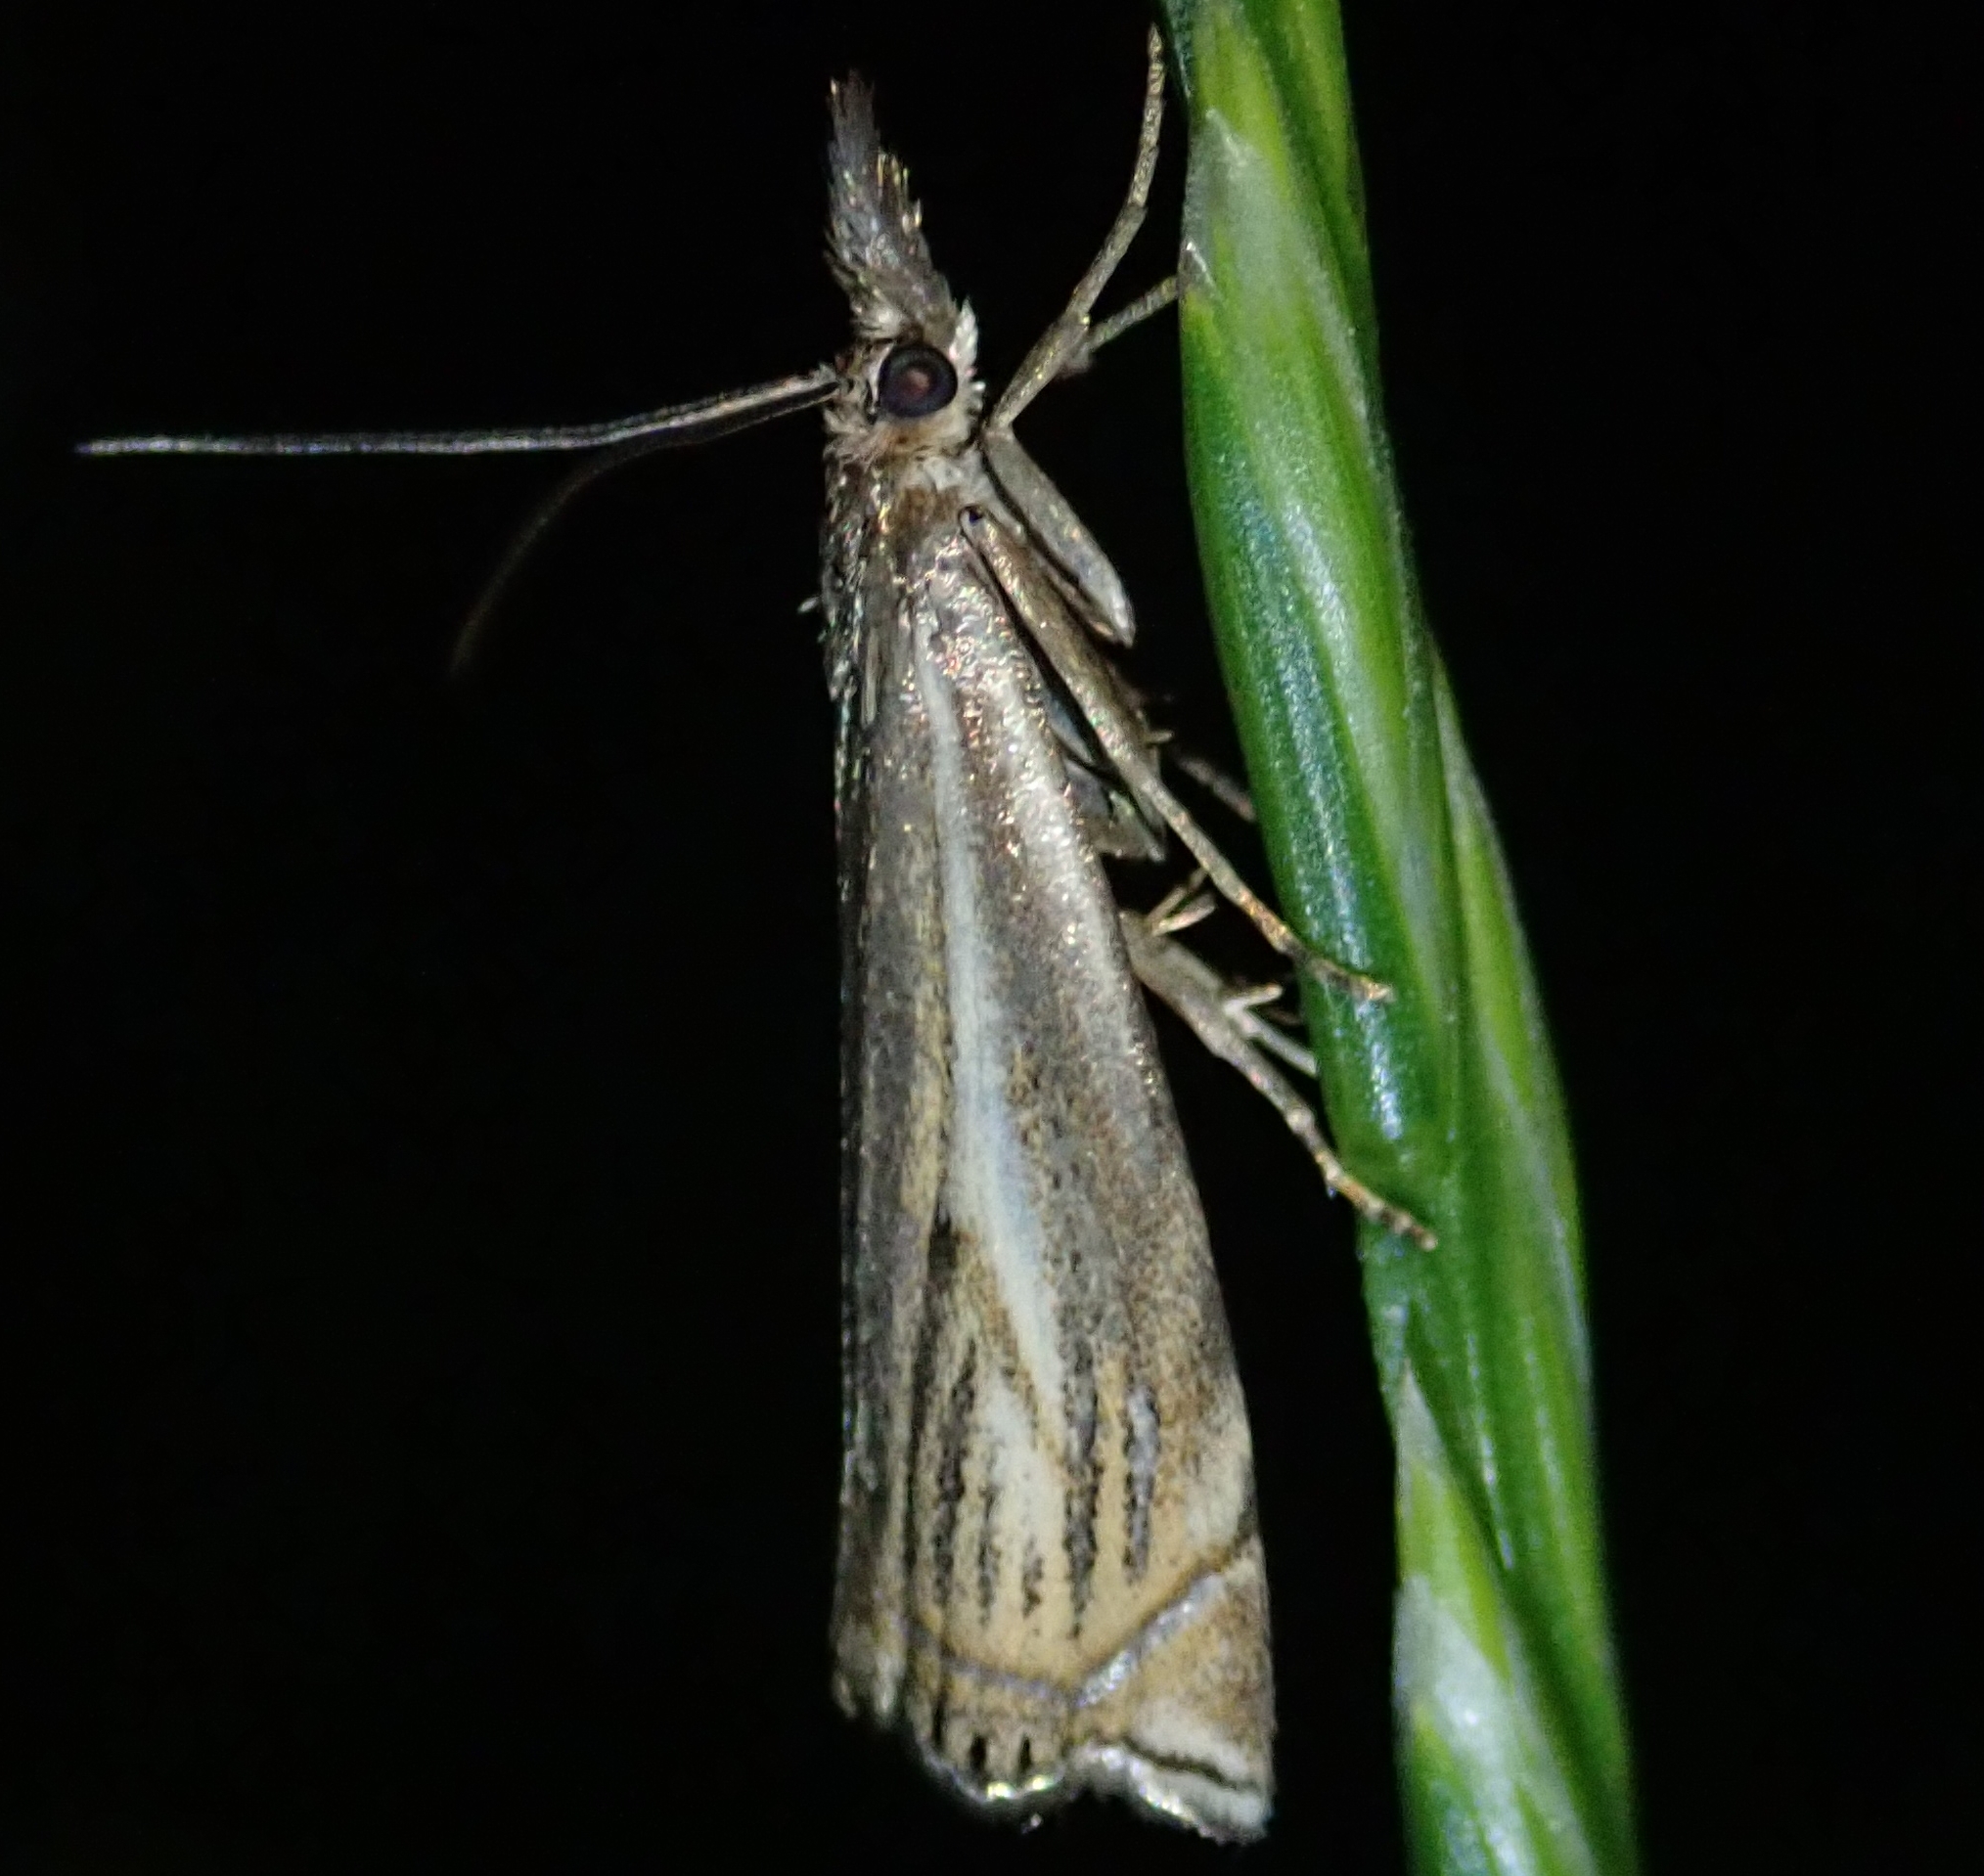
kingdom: Animalia
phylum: Arthropoda
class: Insecta
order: Lepidoptera
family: Crambidae
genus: Crambus
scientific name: Crambus nemorella
